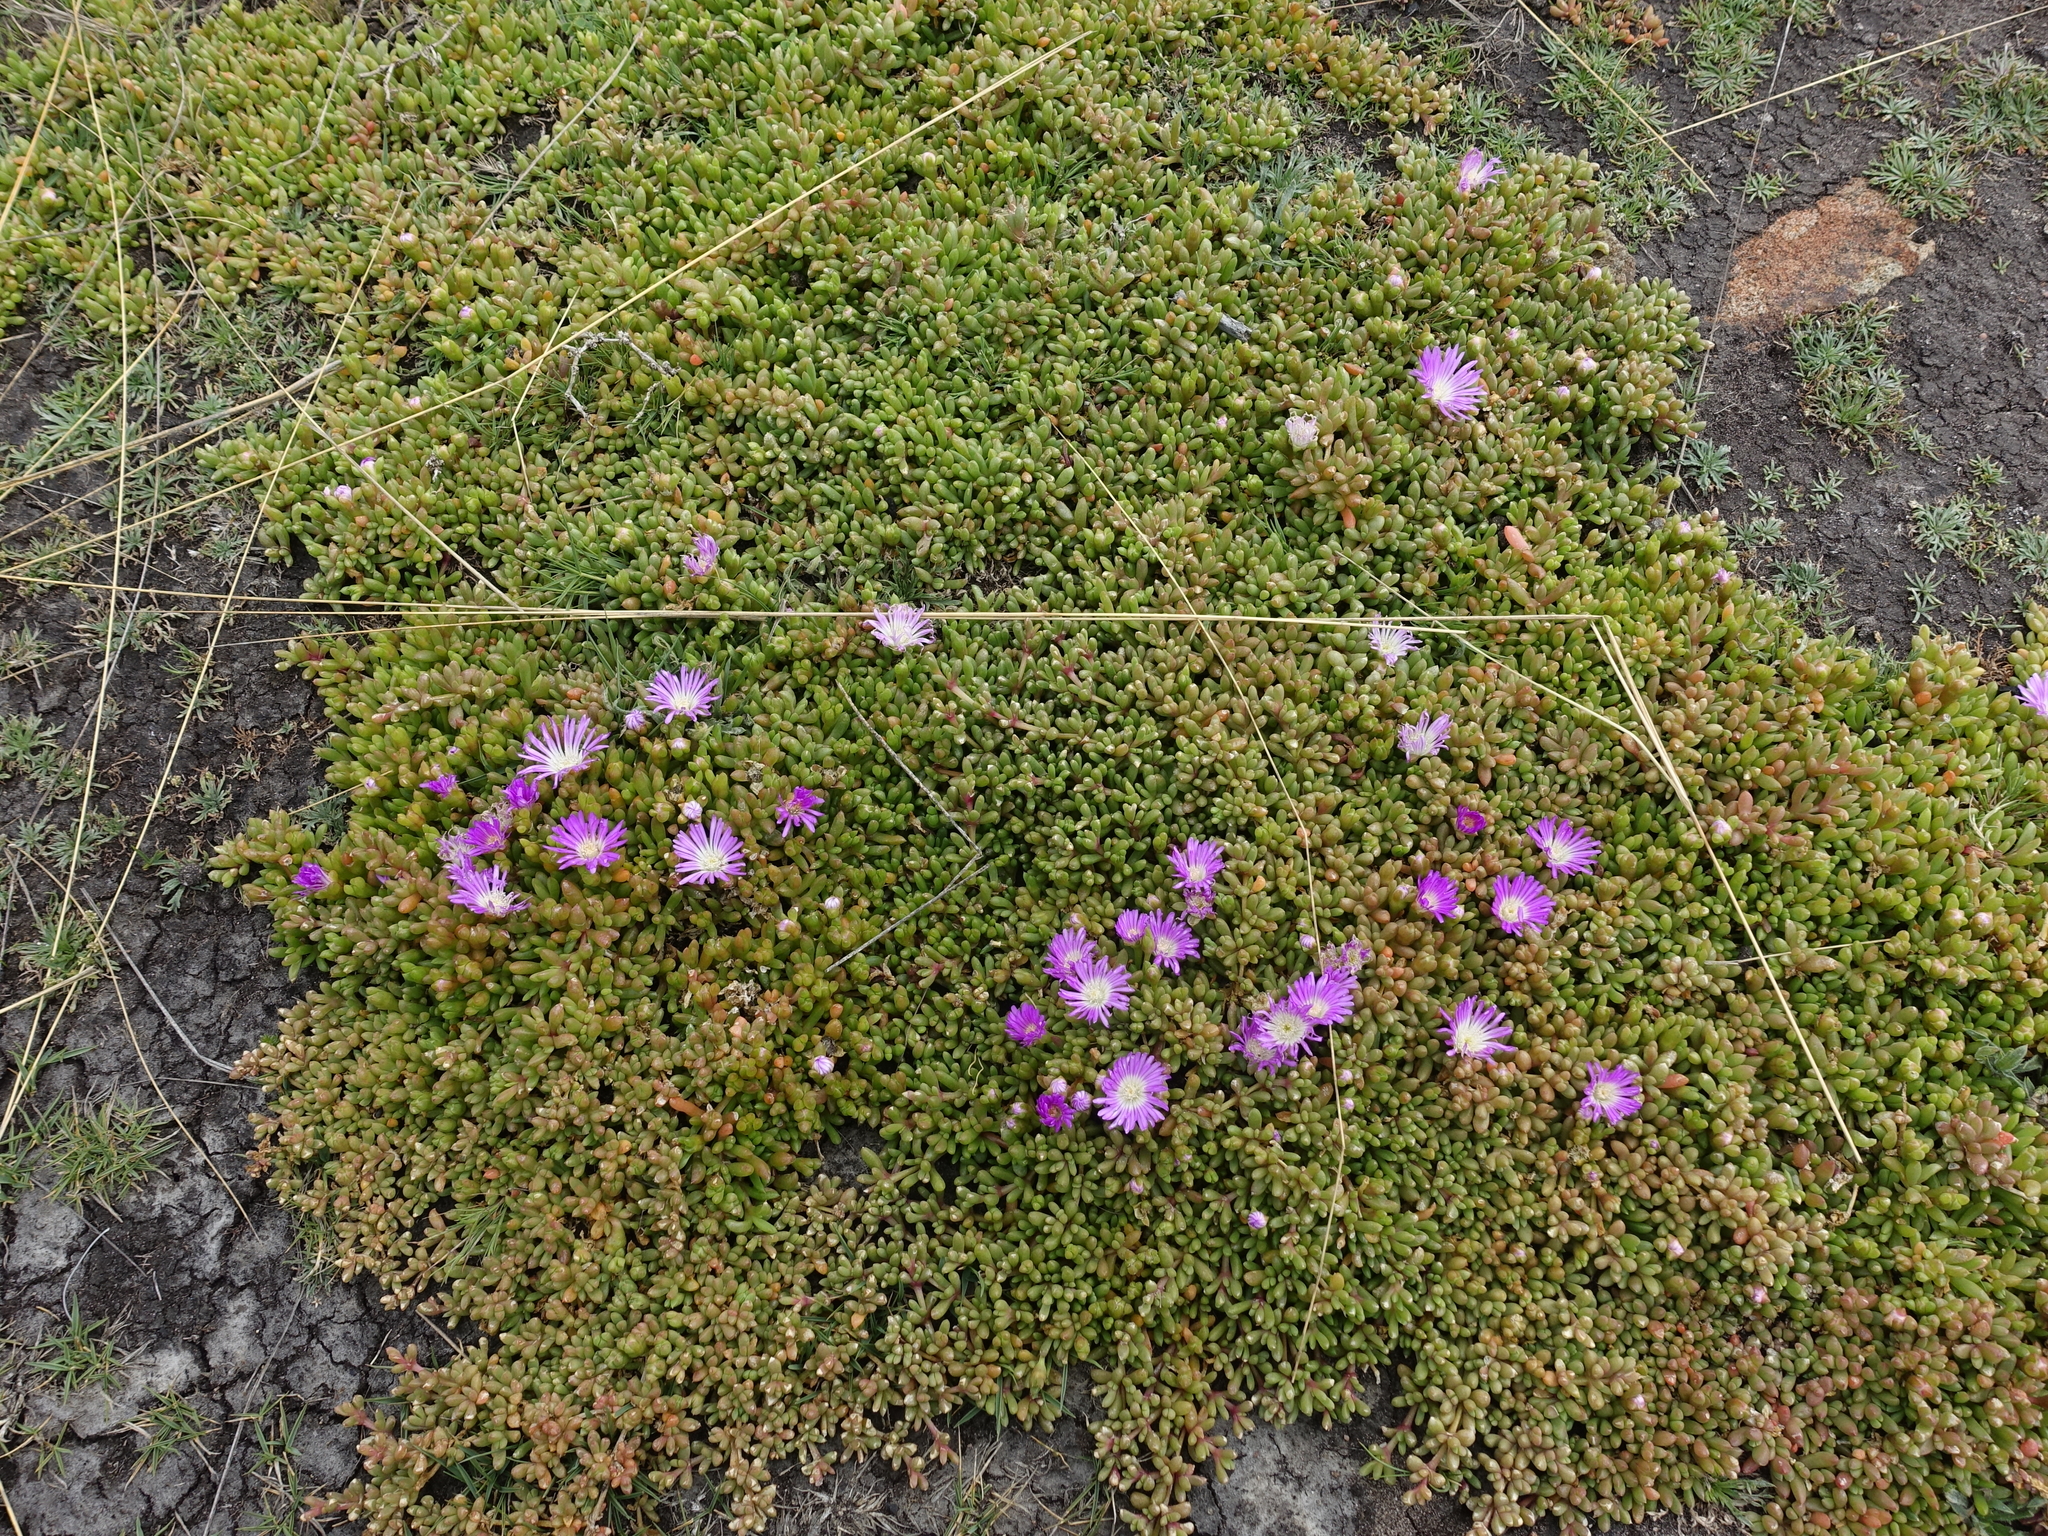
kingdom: Plantae
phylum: Tracheophyta
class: Magnoliopsida
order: Caryophyllales
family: Aizoaceae
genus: Disphyma
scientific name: Disphyma clavellatum
